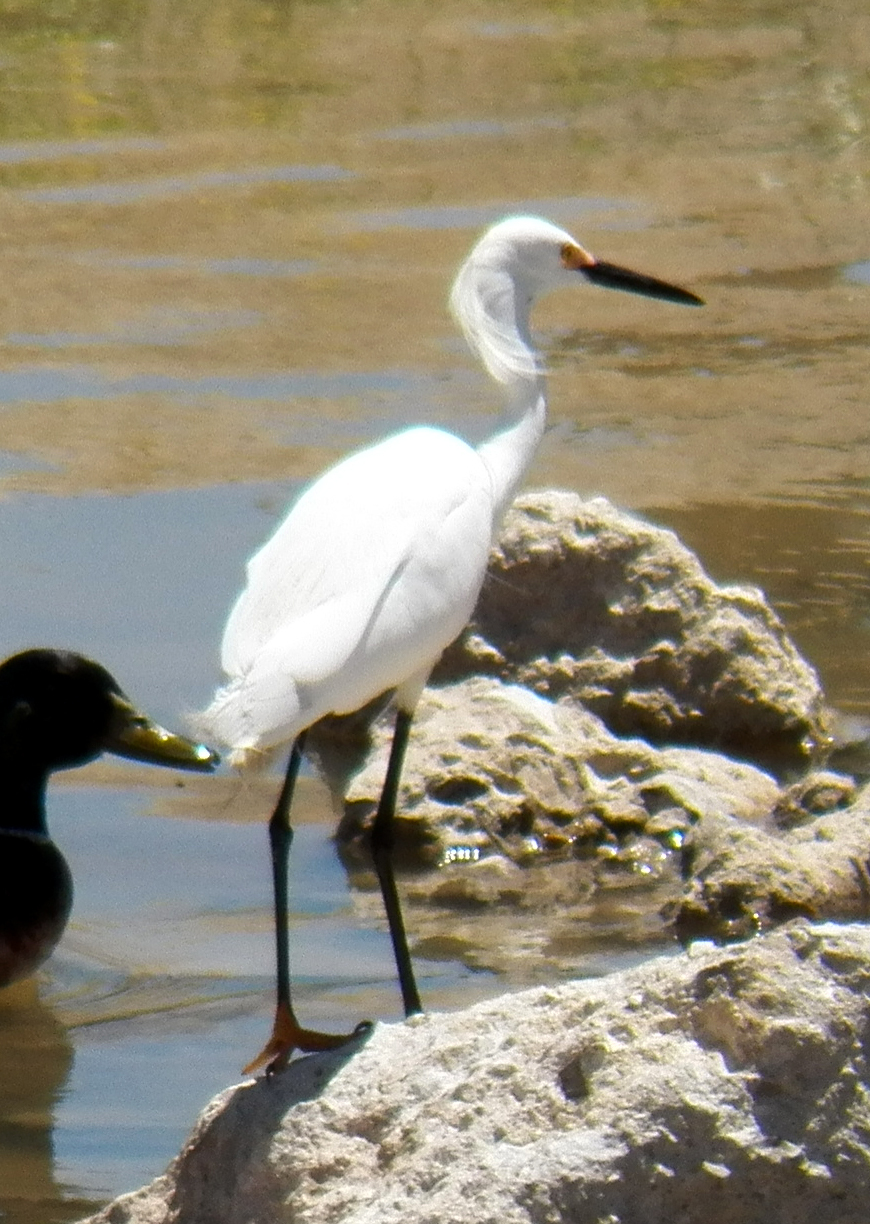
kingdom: Animalia
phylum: Chordata
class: Aves
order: Pelecaniformes
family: Ardeidae
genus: Egretta
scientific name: Egretta thula
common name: Snowy egret
